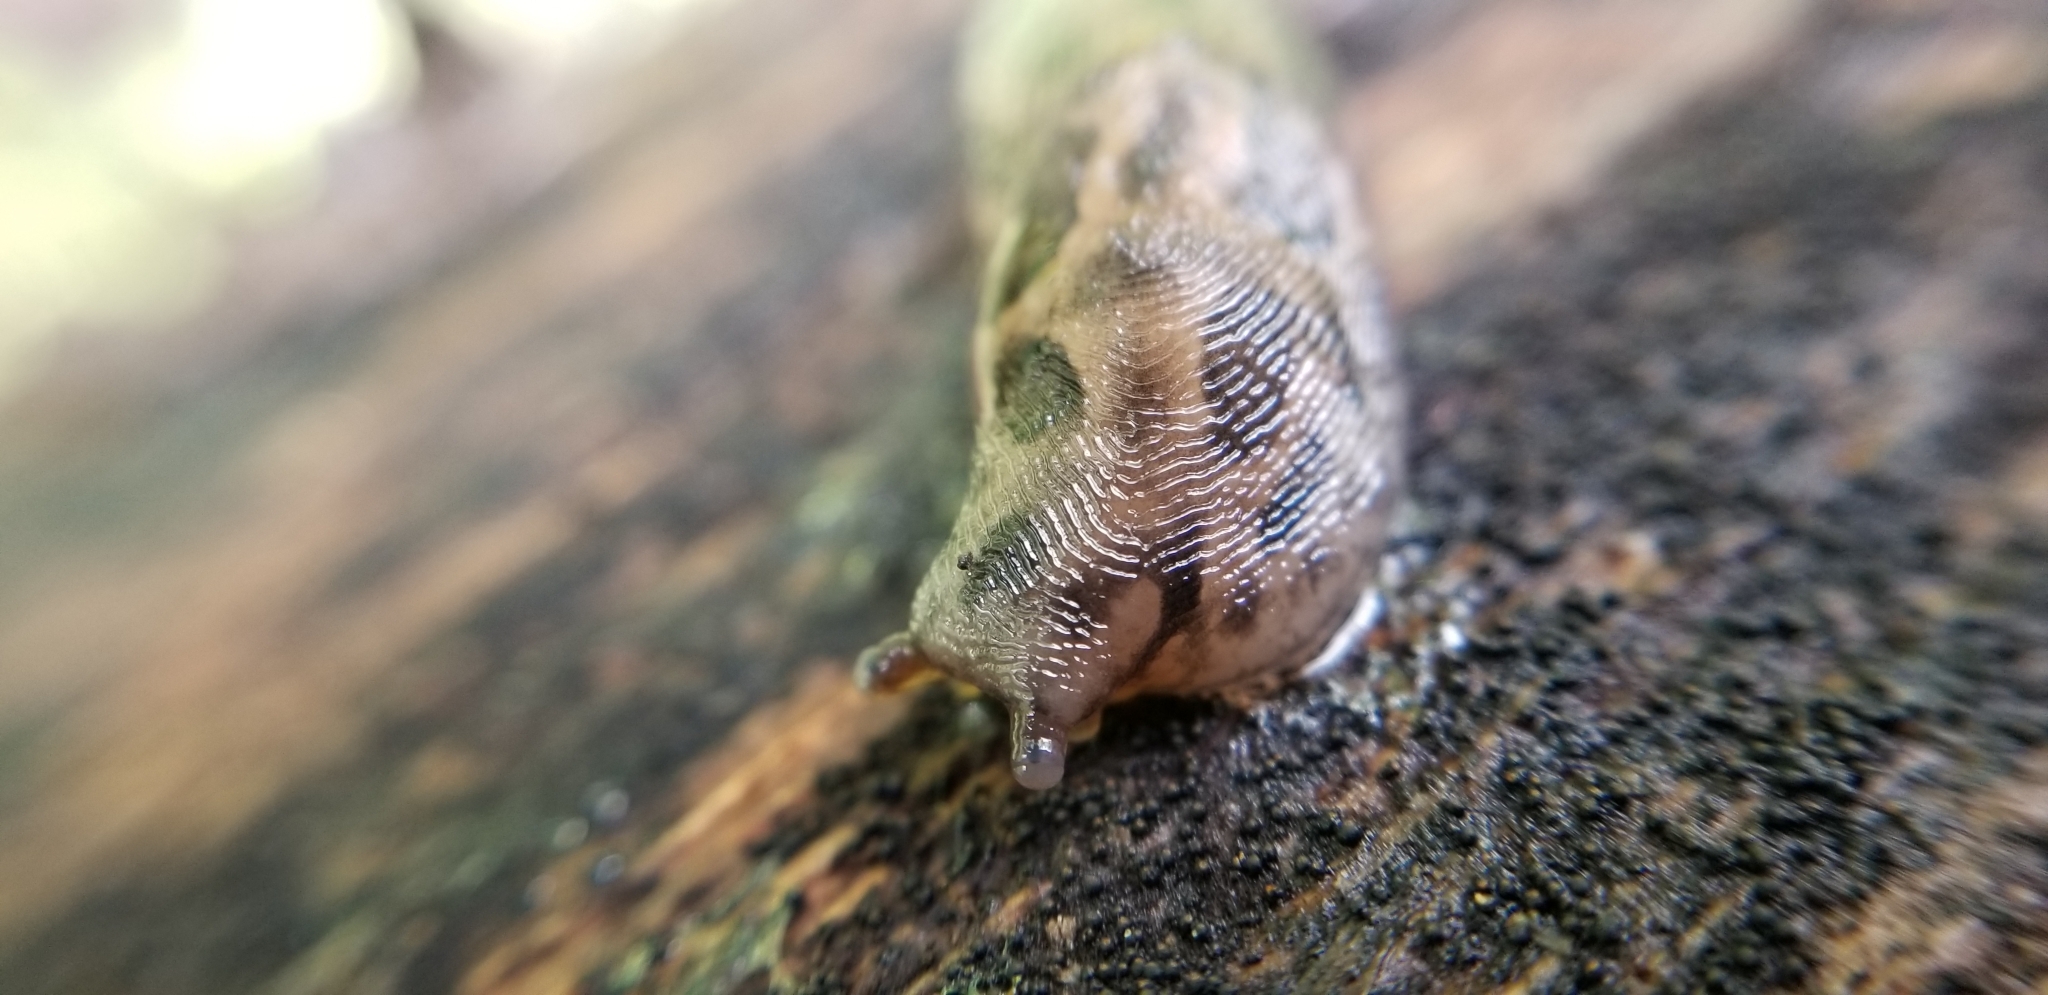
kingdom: Animalia
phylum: Mollusca
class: Gastropoda
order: Stylommatophora
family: Limacidae
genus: Limax
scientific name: Limax maximus
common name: Great grey slug
